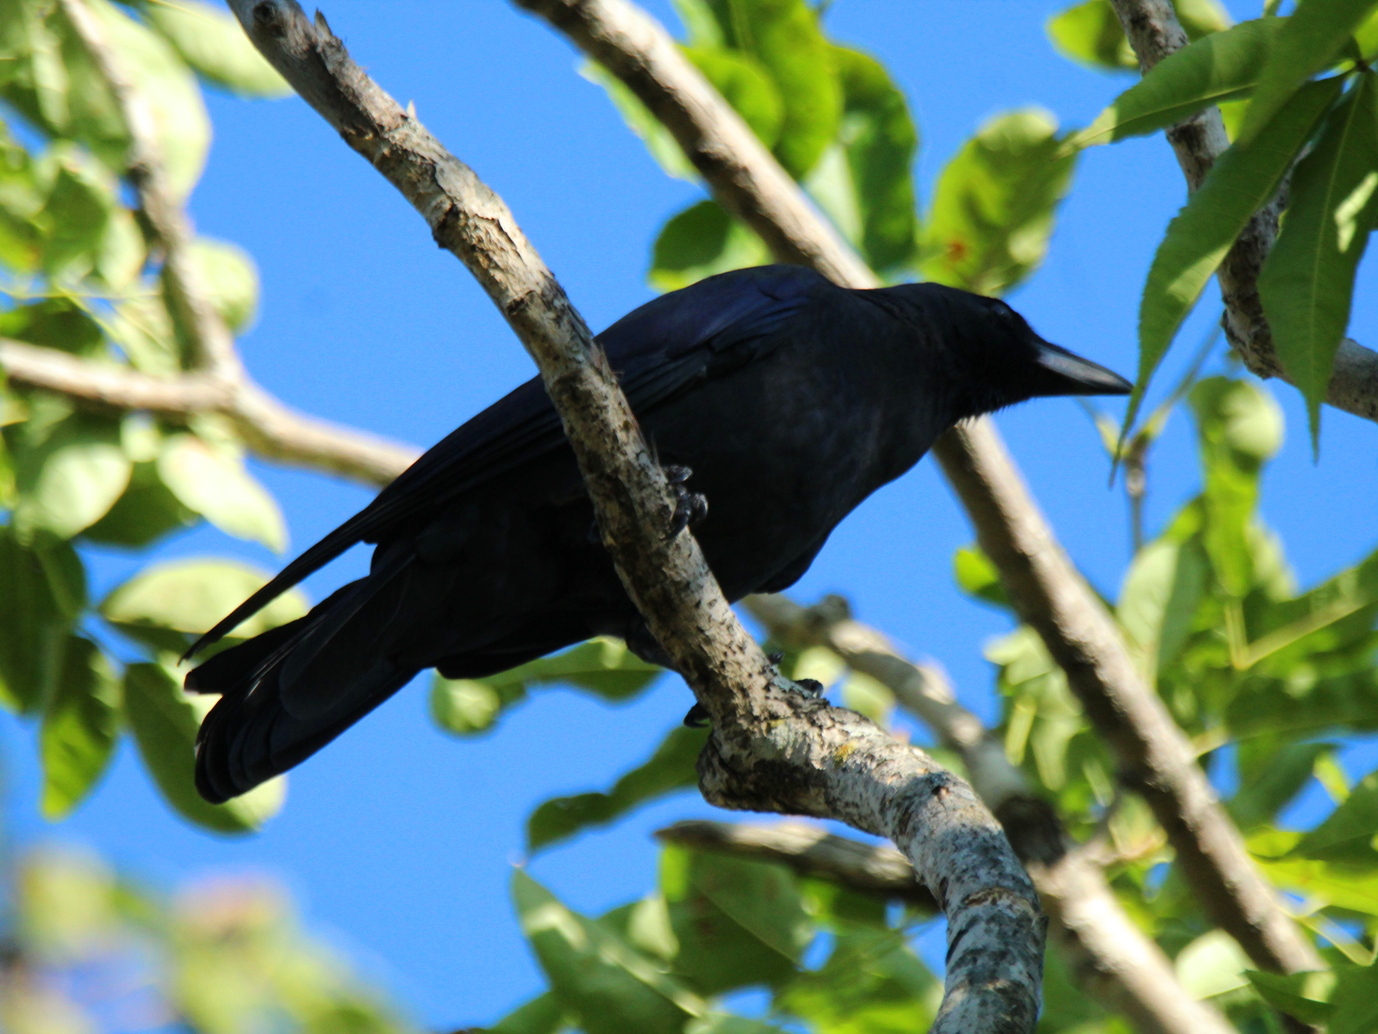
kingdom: Animalia
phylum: Chordata
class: Aves
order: Passeriformes
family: Corvidae
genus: Corvus
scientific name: Corvus corone
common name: Carrion crow
